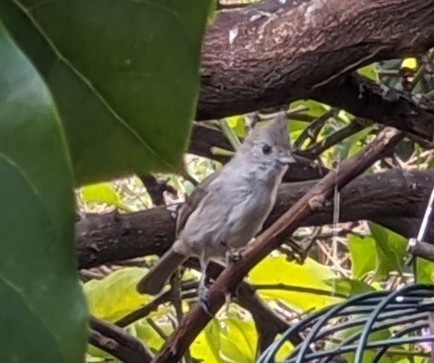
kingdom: Animalia
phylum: Chordata
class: Aves
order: Passeriformes
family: Paridae
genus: Baeolophus
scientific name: Baeolophus inornatus
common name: Oak titmouse
